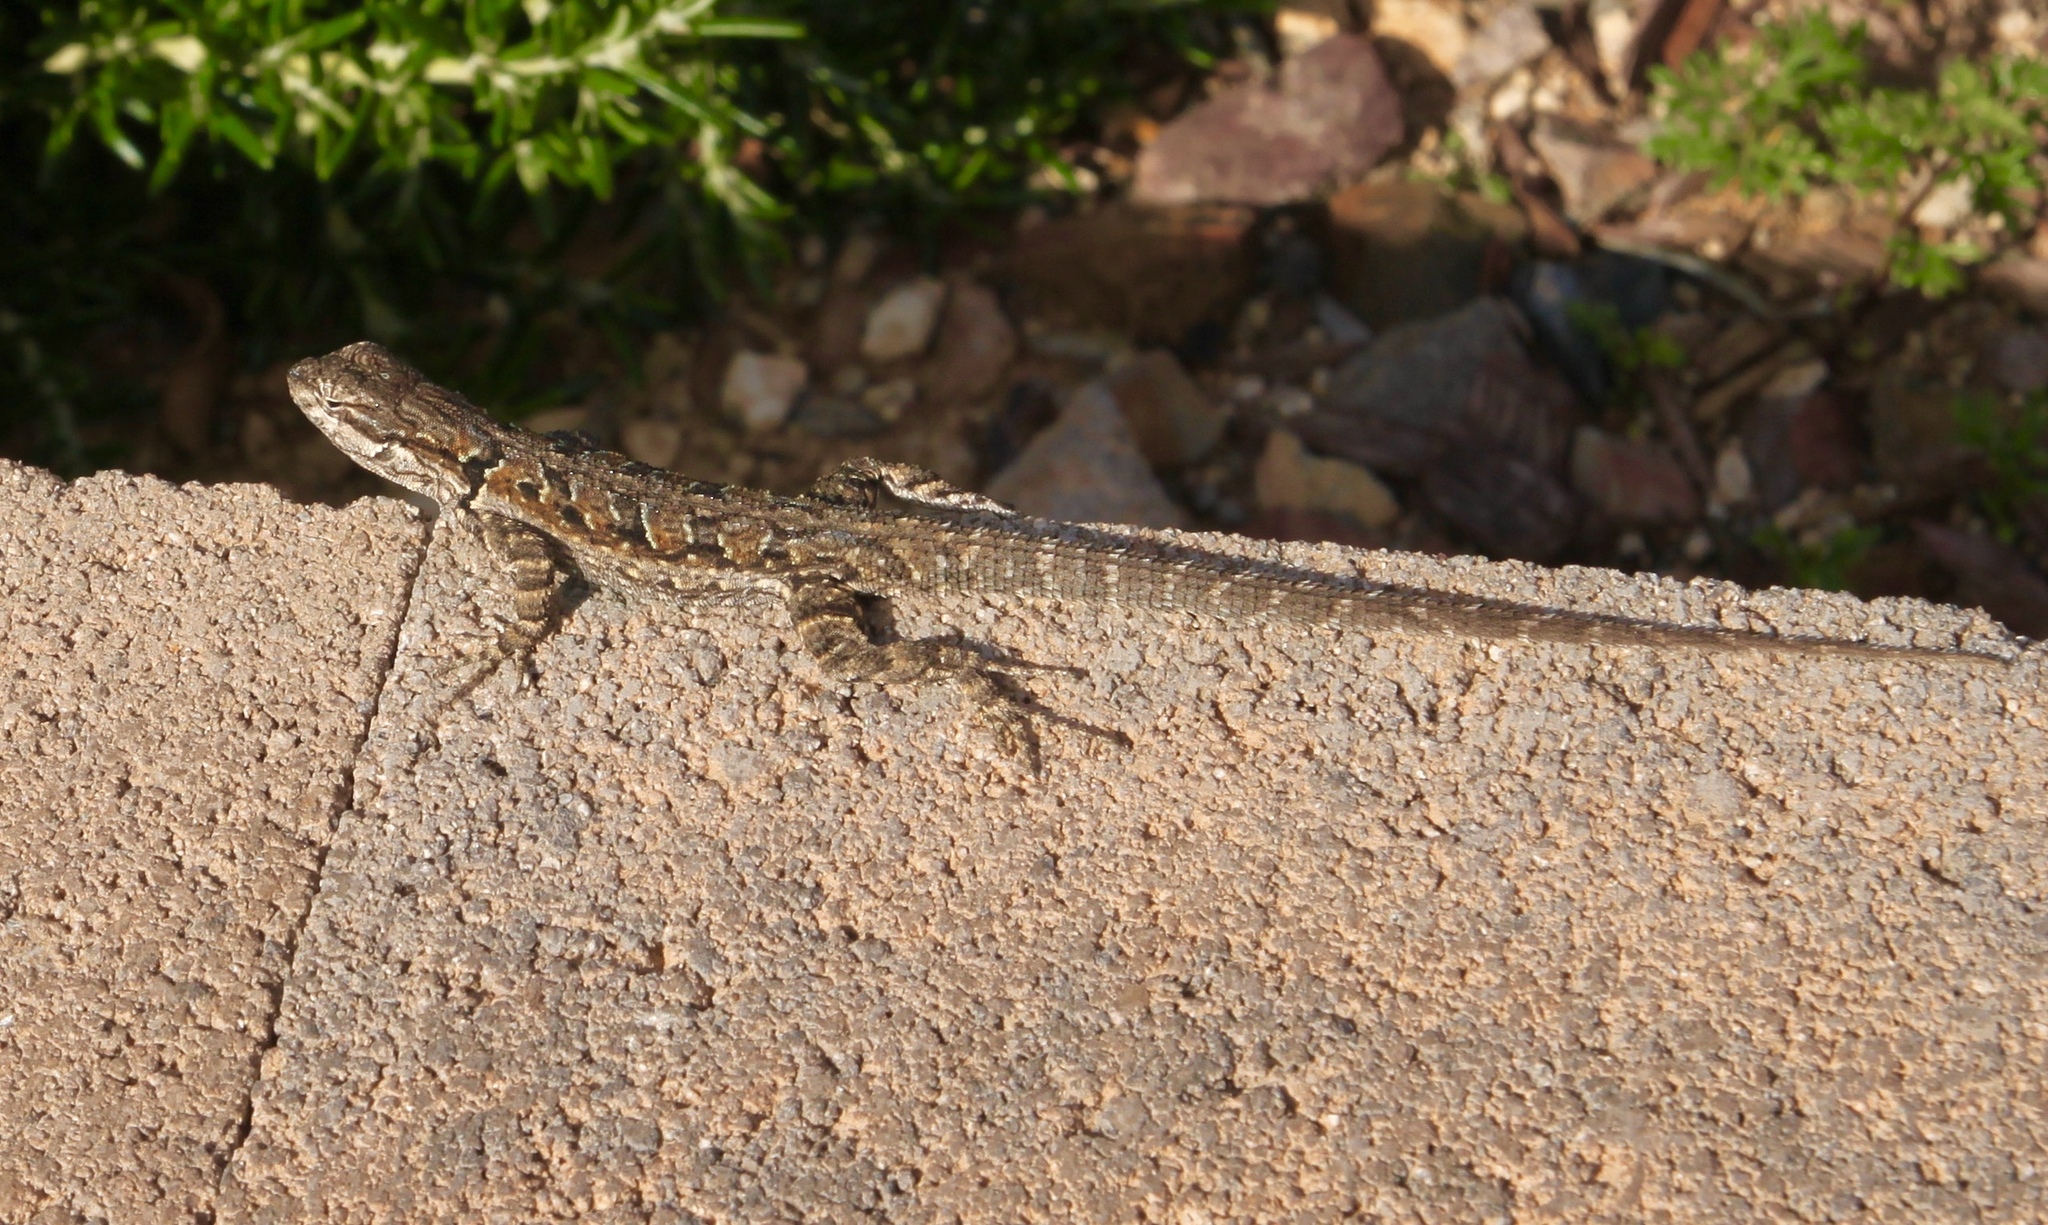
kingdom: Animalia
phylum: Chordata
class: Squamata
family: Phrynosomatidae
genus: Urosaurus
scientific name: Urosaurus ornatus
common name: Ornate tree lizard
